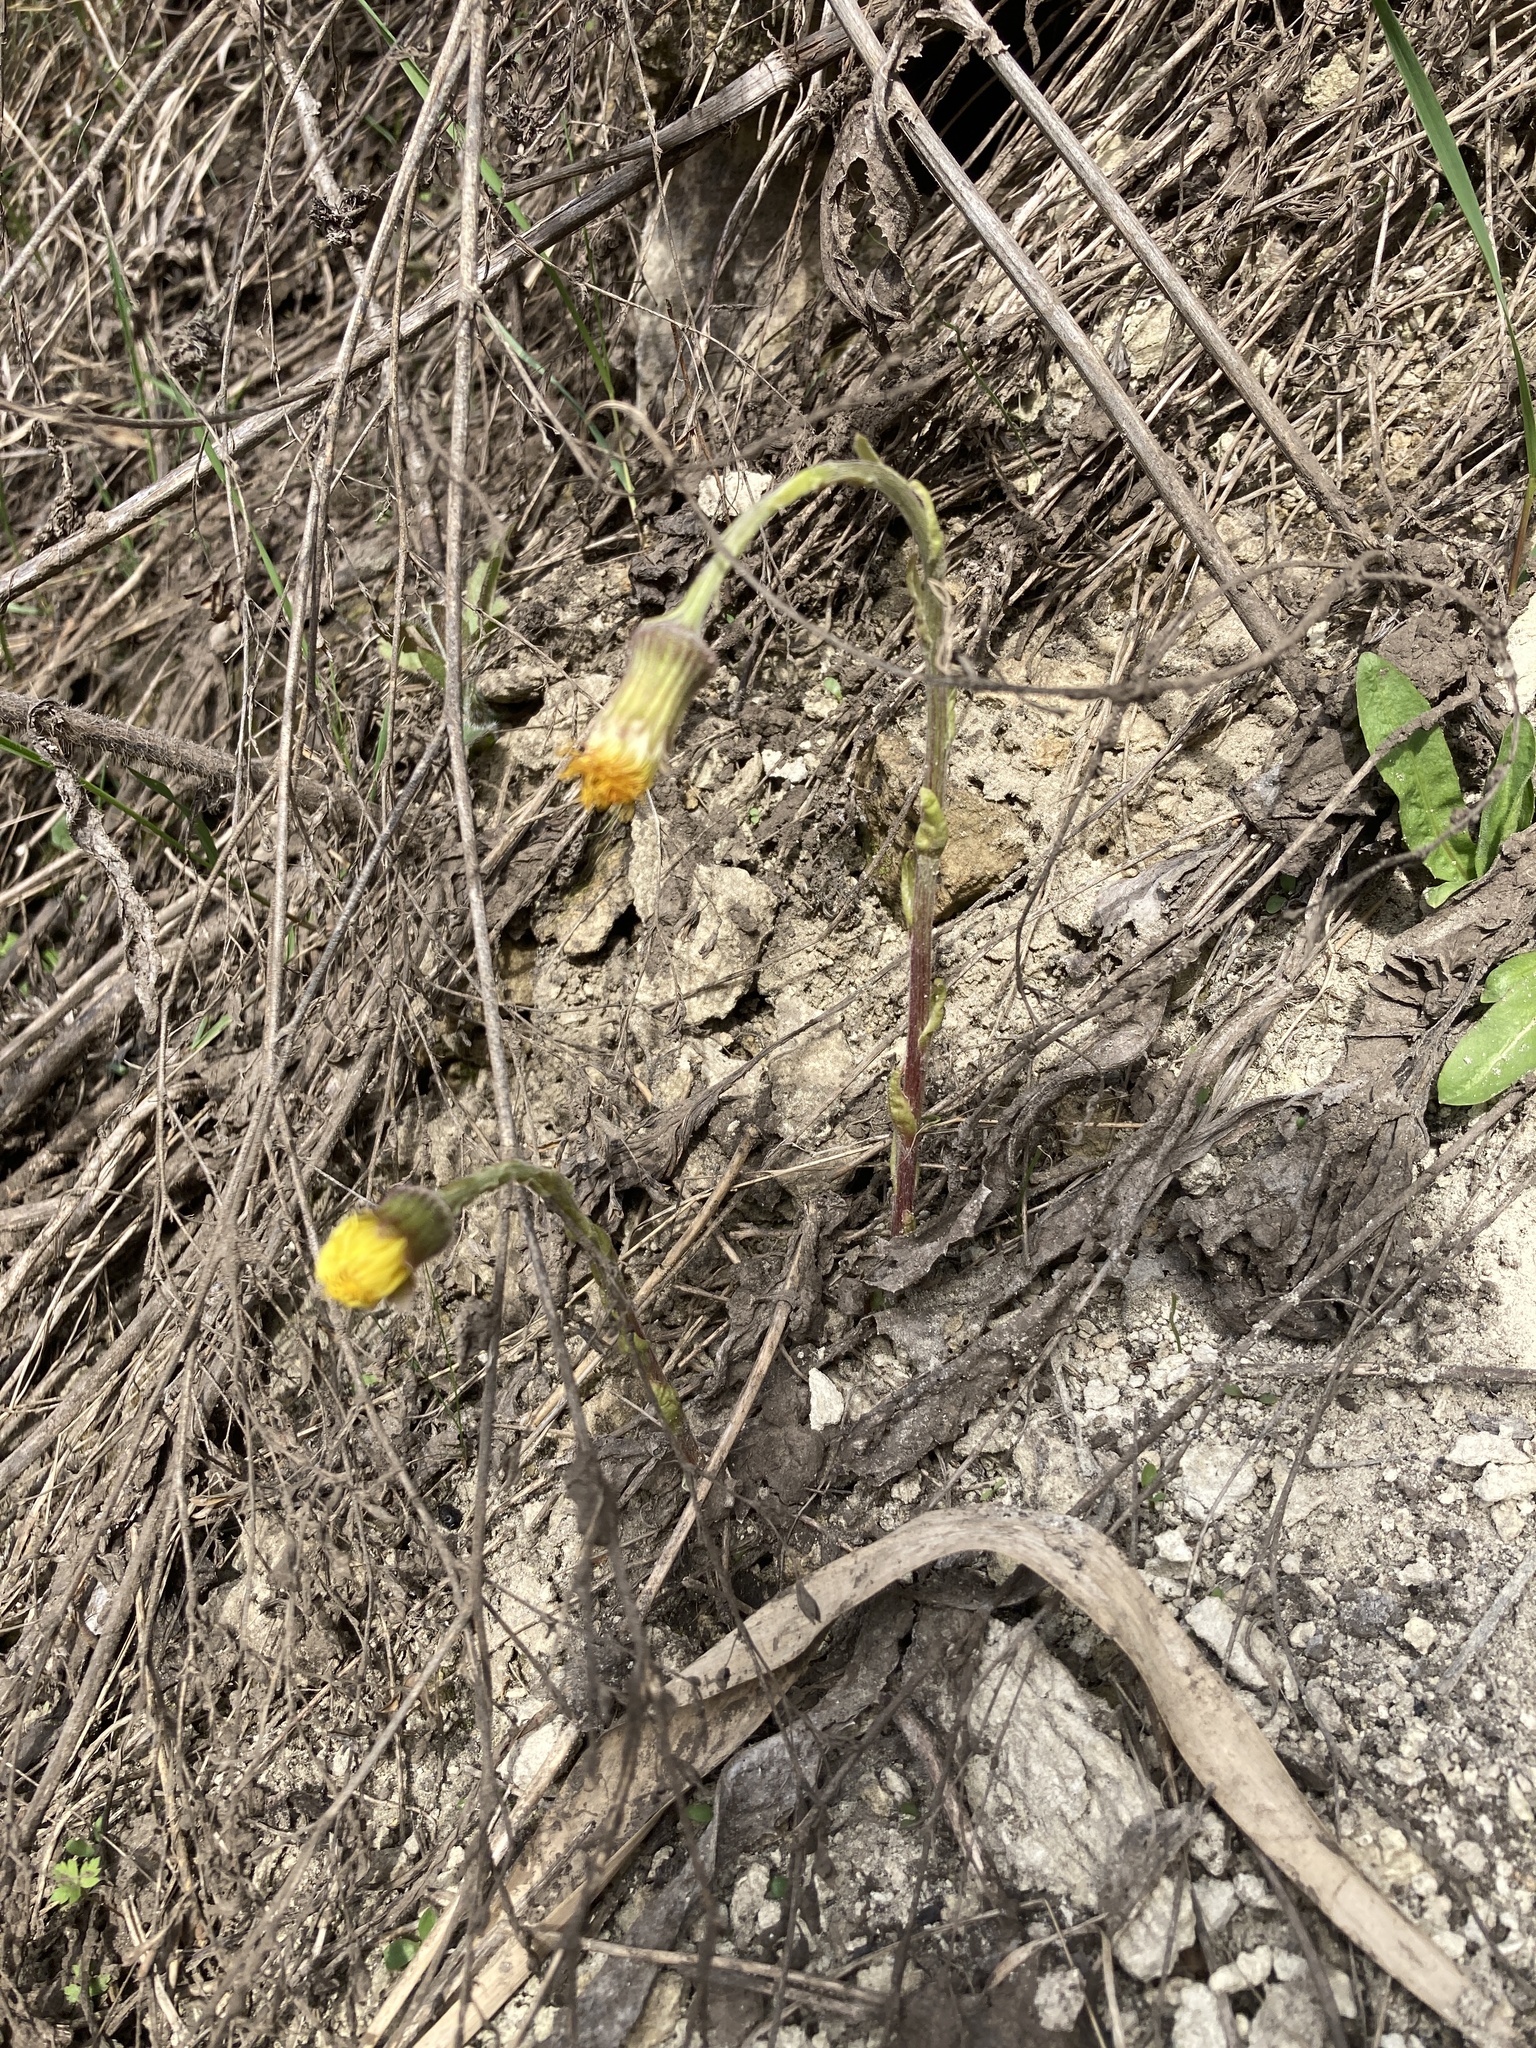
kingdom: Plantae
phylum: Tracheophyta
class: Magnoliopsida
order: Asterales
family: Asteraceae
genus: Tussilago
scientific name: Tussilago farfara
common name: Coltsfoot
